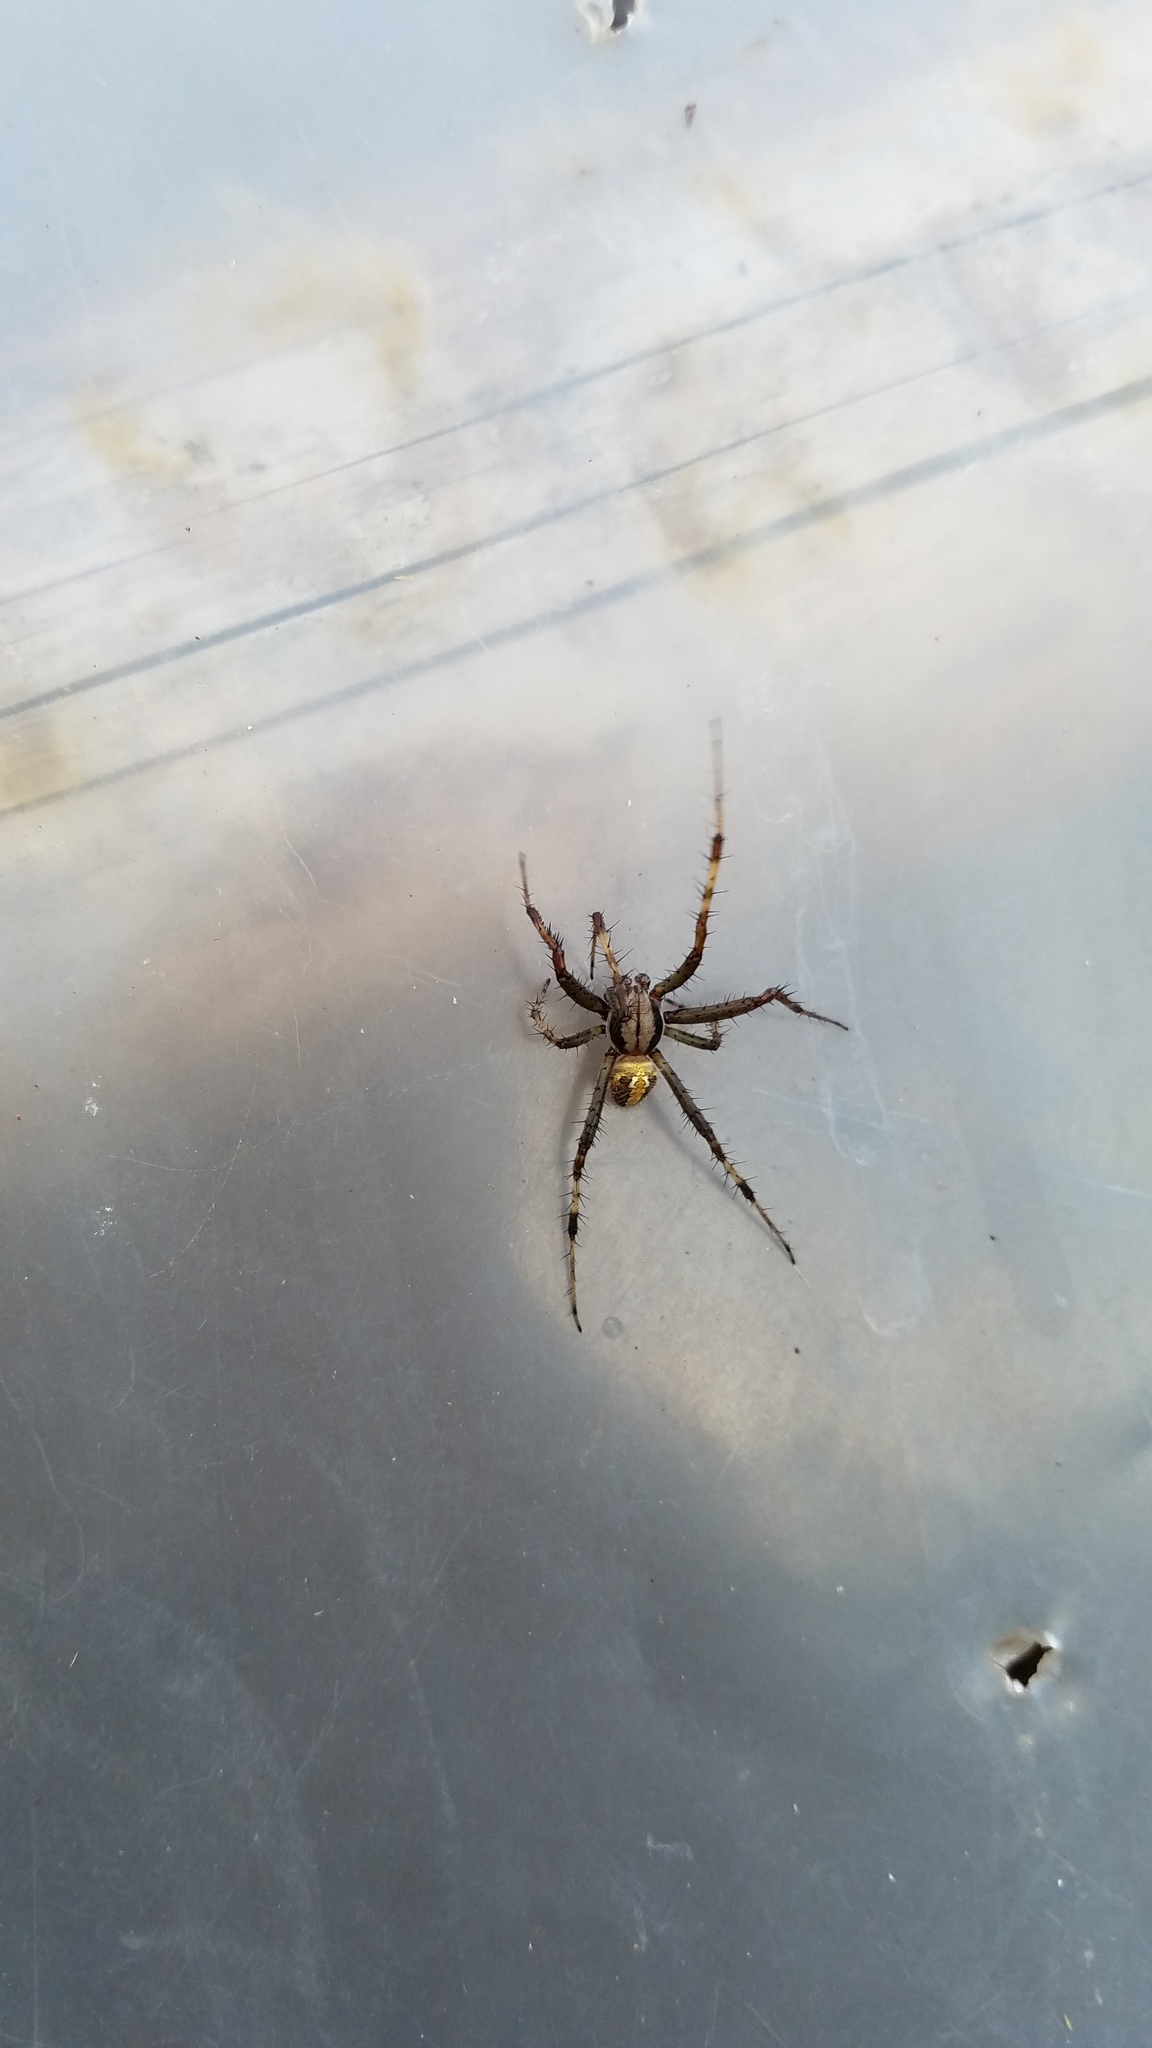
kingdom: Animalia
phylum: Arthropoda
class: Arachnida
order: Araneae
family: Araneidae
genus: Neoscona
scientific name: Neoscona oaxacensis
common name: Orb weavers
